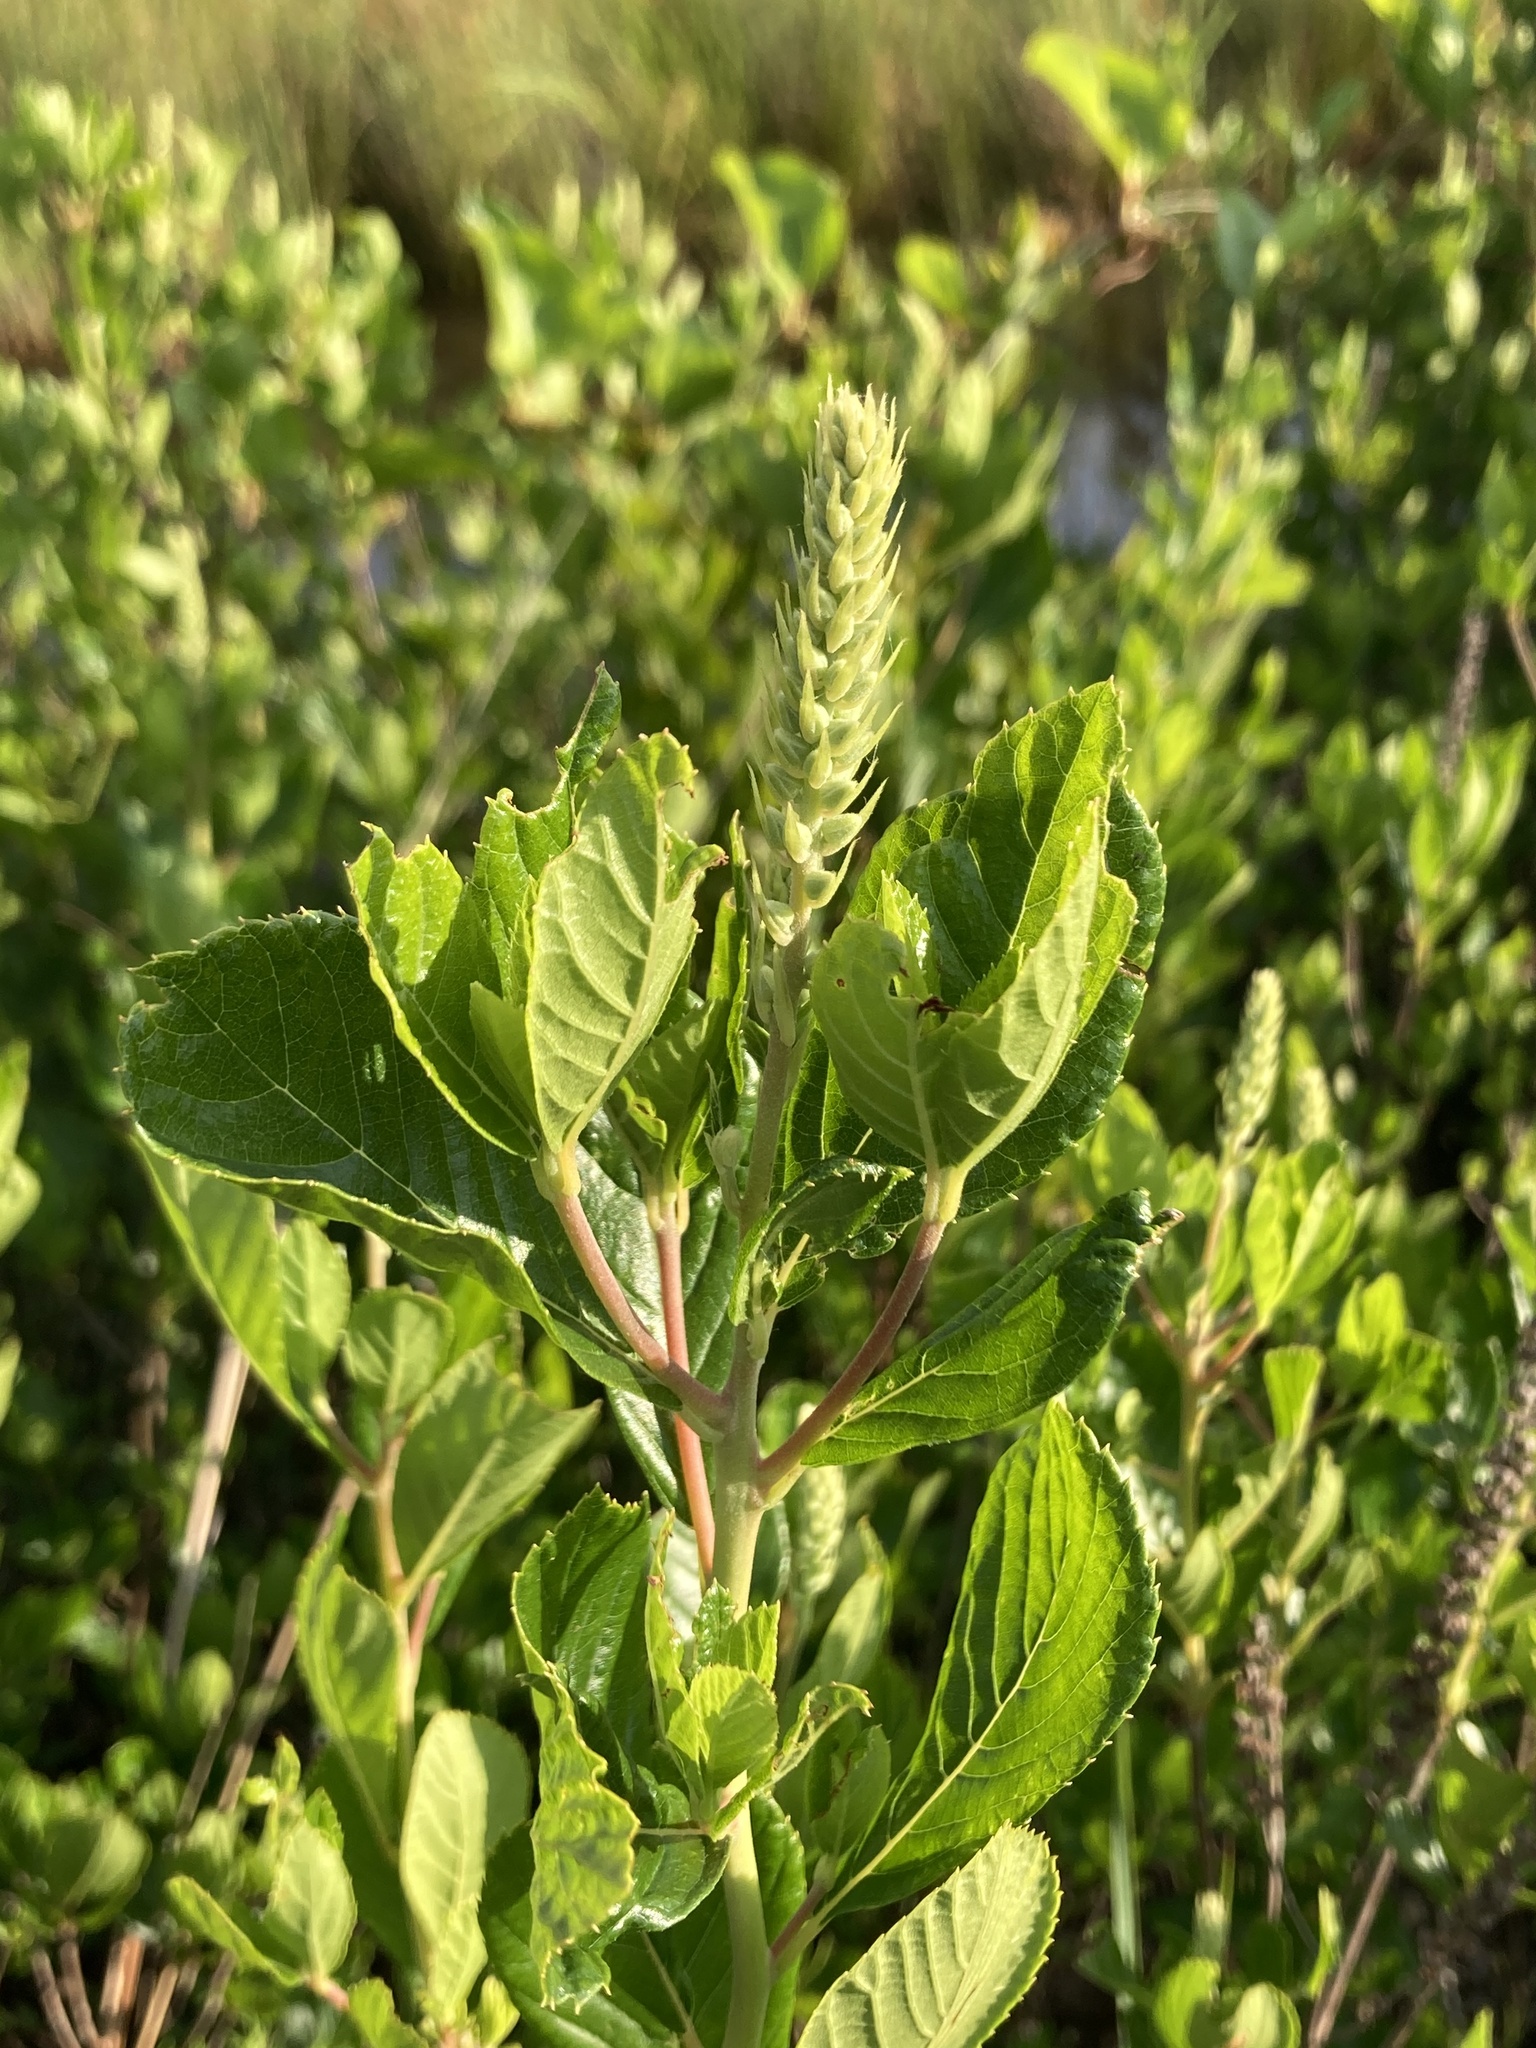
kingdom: Plantae
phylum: Tracheophyta
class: Magnoliopsida
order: Ericales
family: Clethraceae
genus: Clethra
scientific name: Clethra alnifolia
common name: Sweet pepperbush
